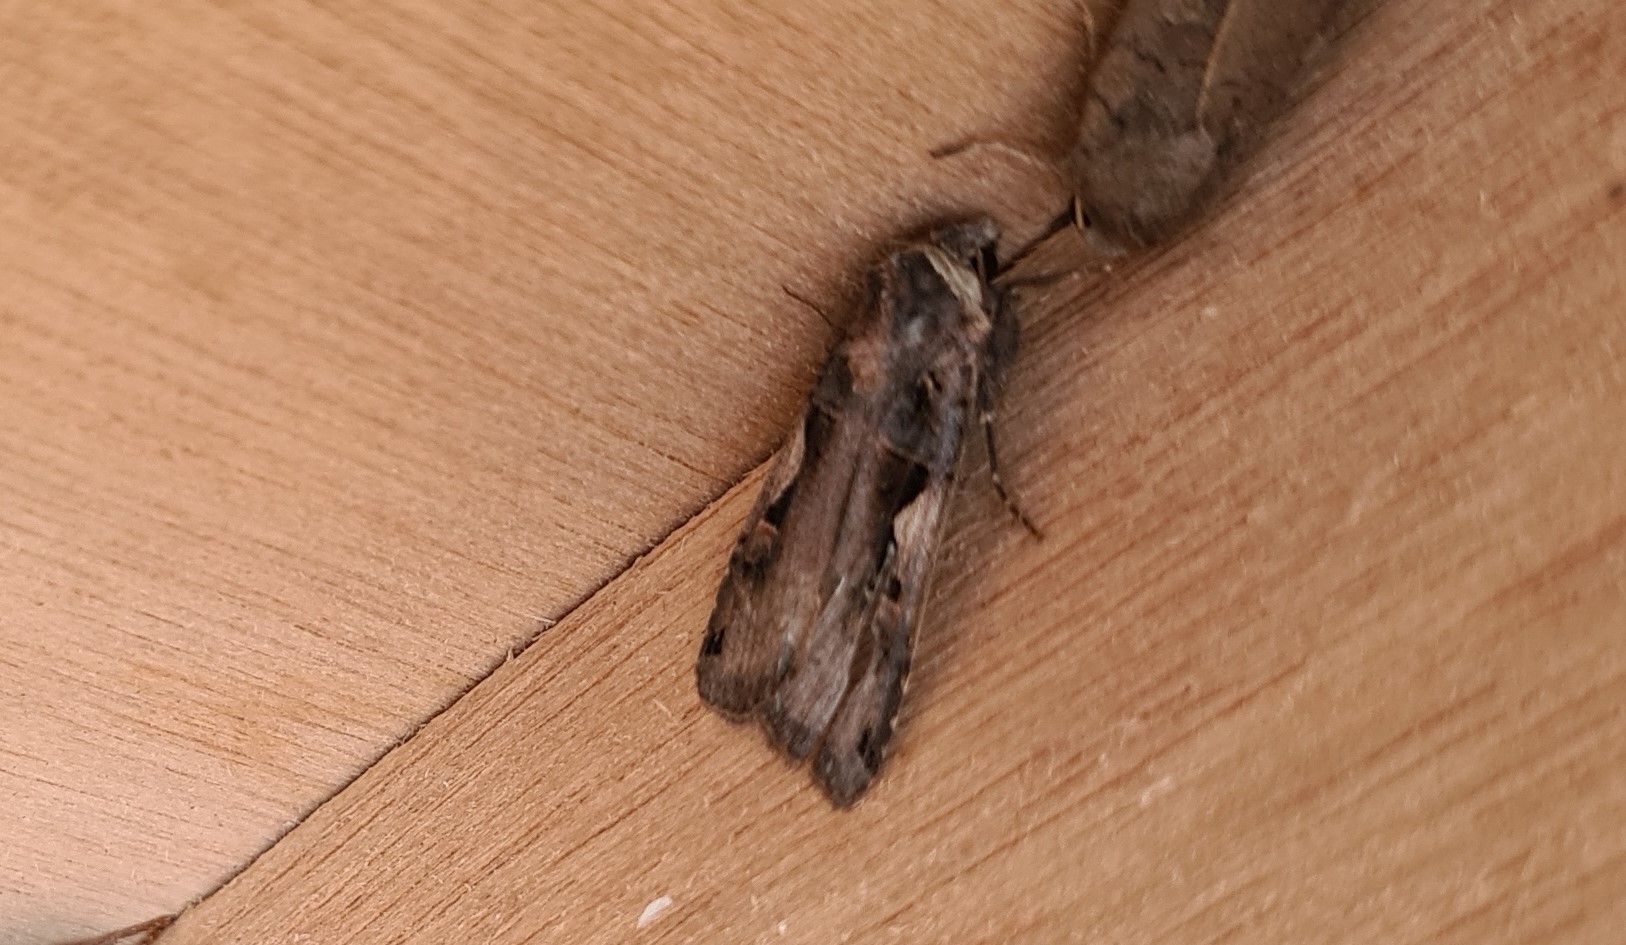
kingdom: Animalia
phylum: Arthropoda
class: Insecta
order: Lepidoptera
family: Noctuidae
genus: Xestia
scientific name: Xestia c-nigrum
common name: Setaceous hebrew character
